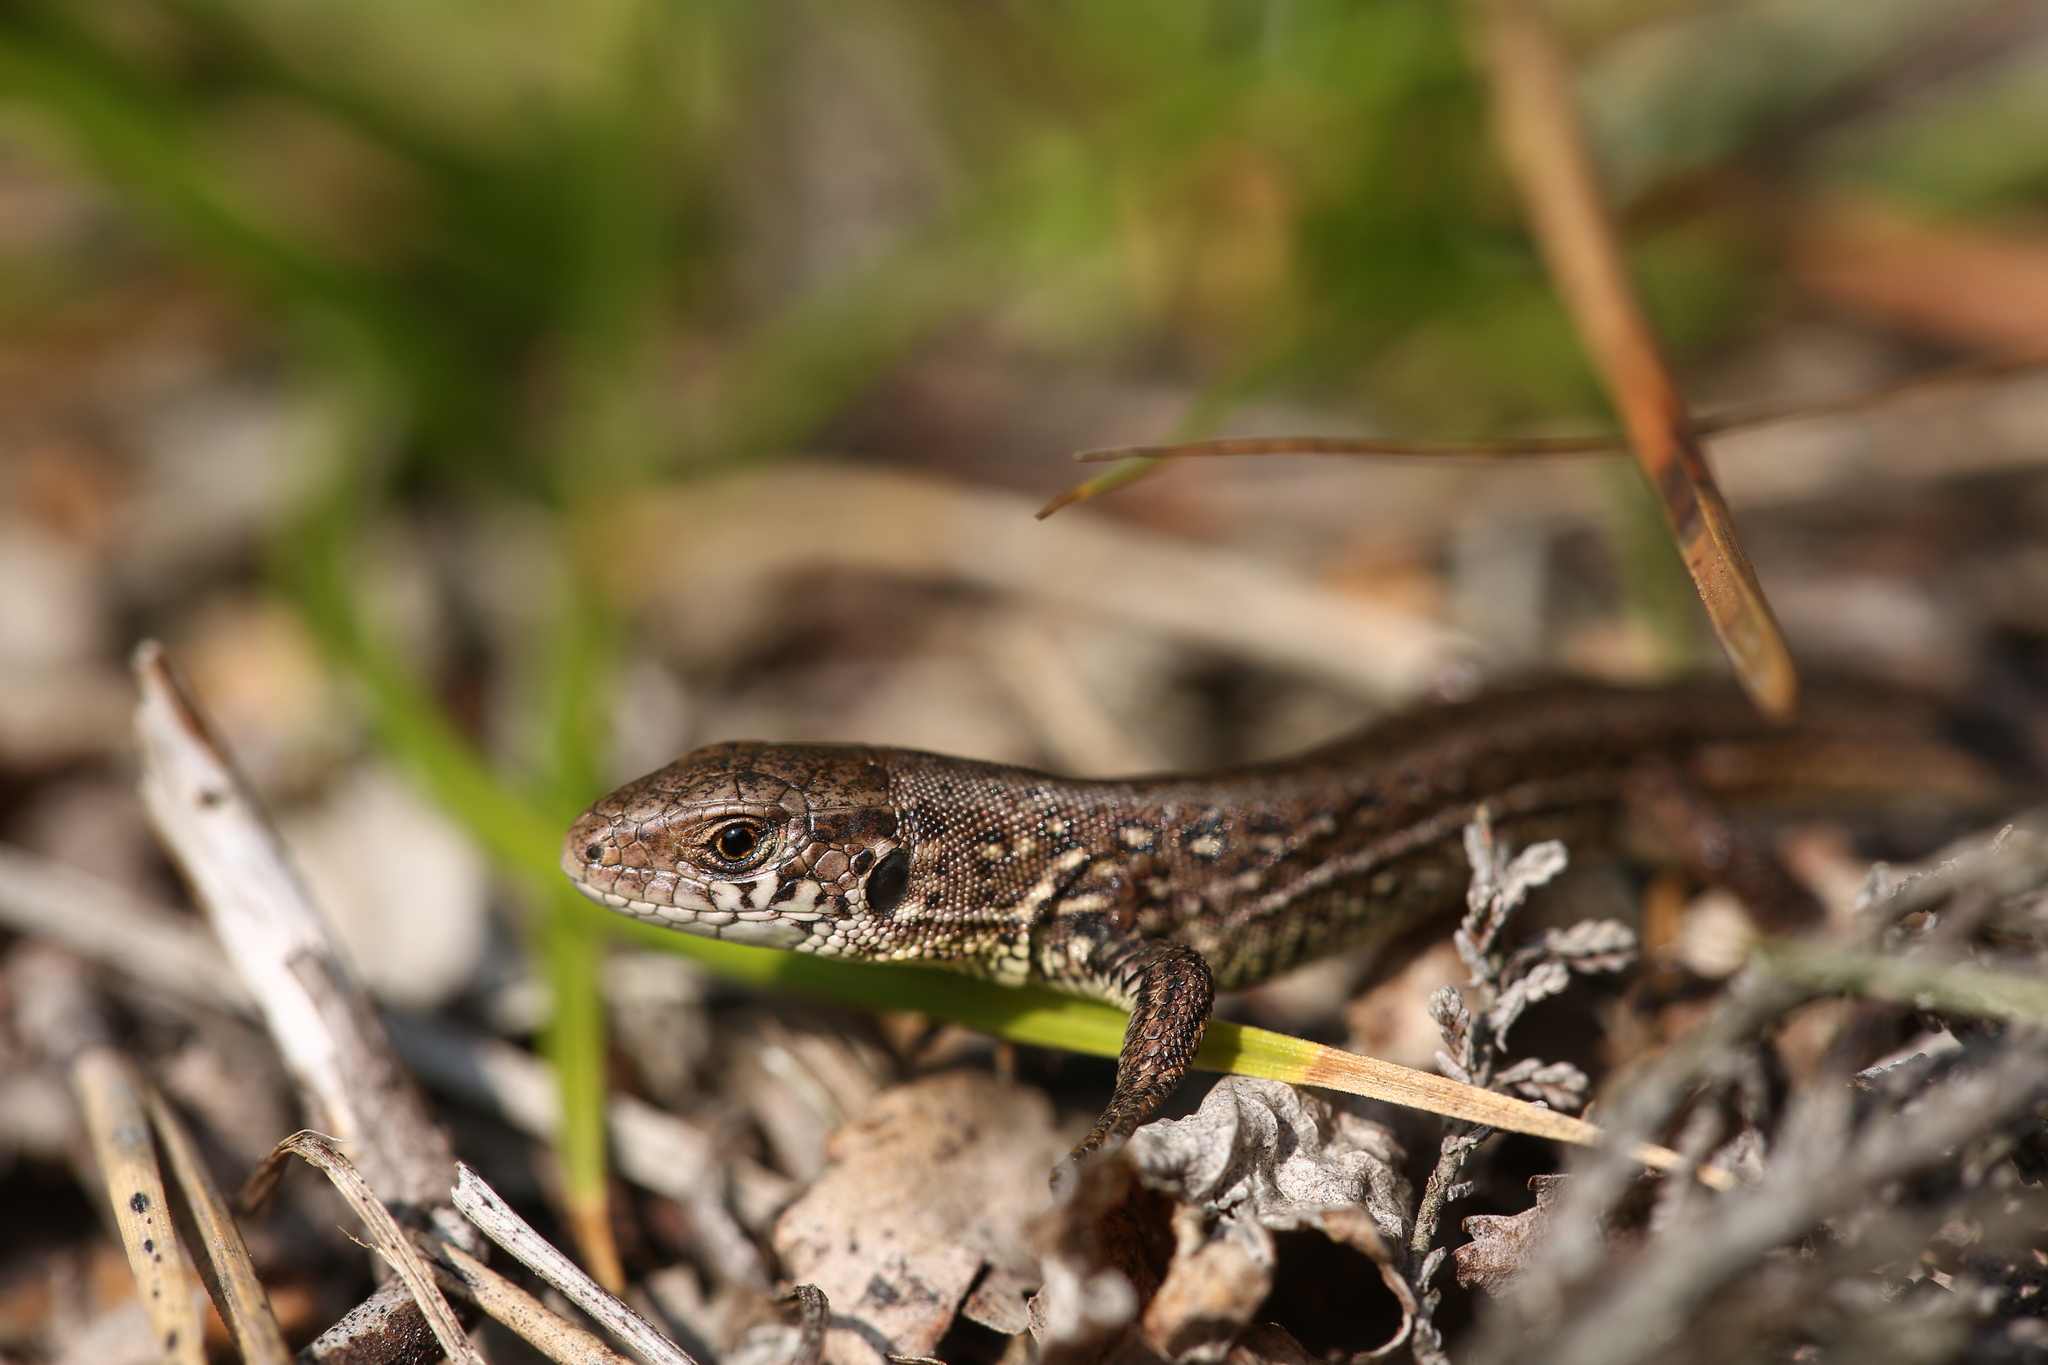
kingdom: Animalia
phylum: Chordata
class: Squamata
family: Lacertidae
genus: Lacerta
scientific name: Lacerta agilis
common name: Sand lizard
